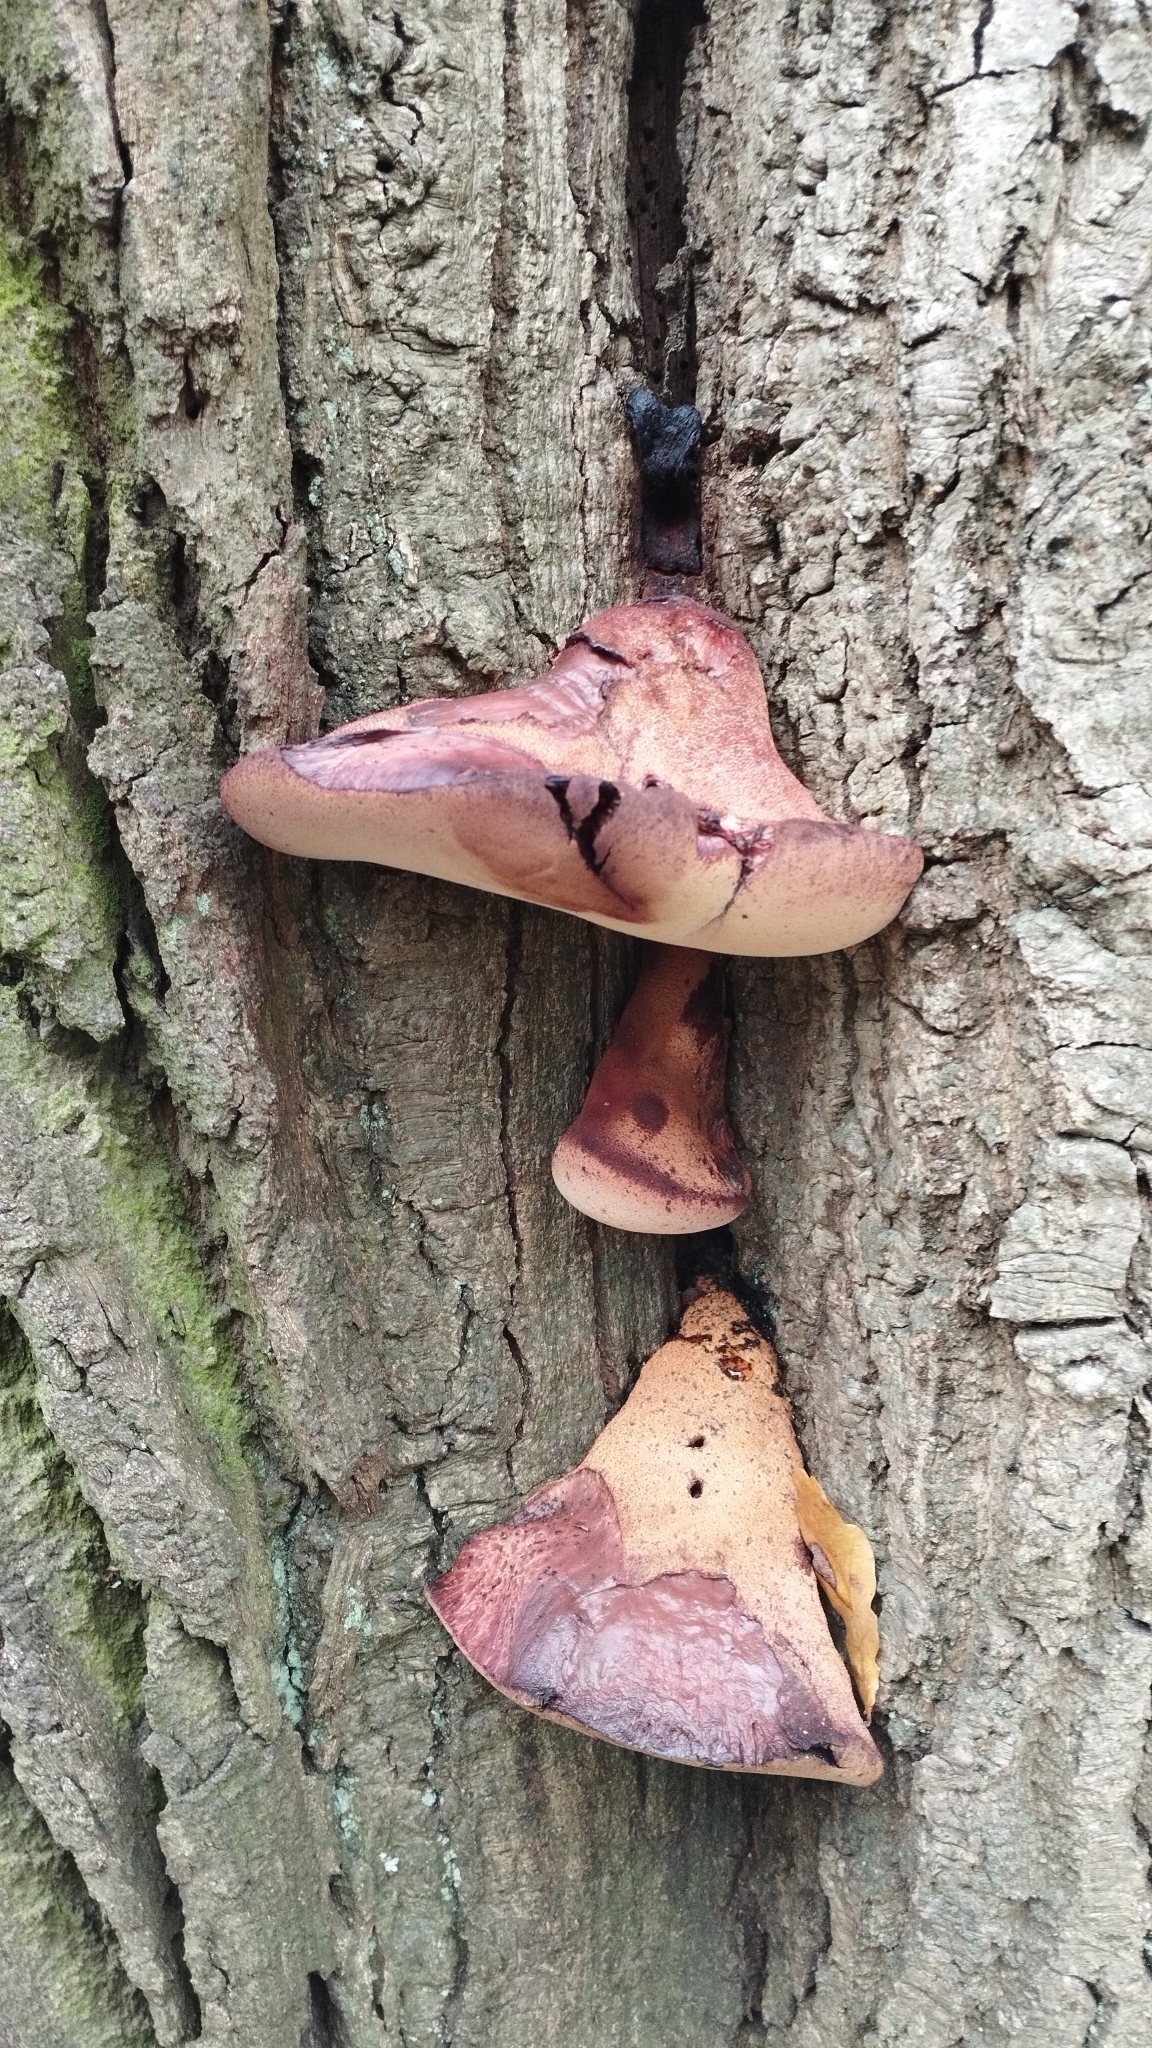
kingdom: Fungi
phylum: Basidiomycota
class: Agaricomycetes
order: Agaricales
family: Fistulinaceae
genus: Fistulina
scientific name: Fistulina hepatica
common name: Beef-steak fungus
